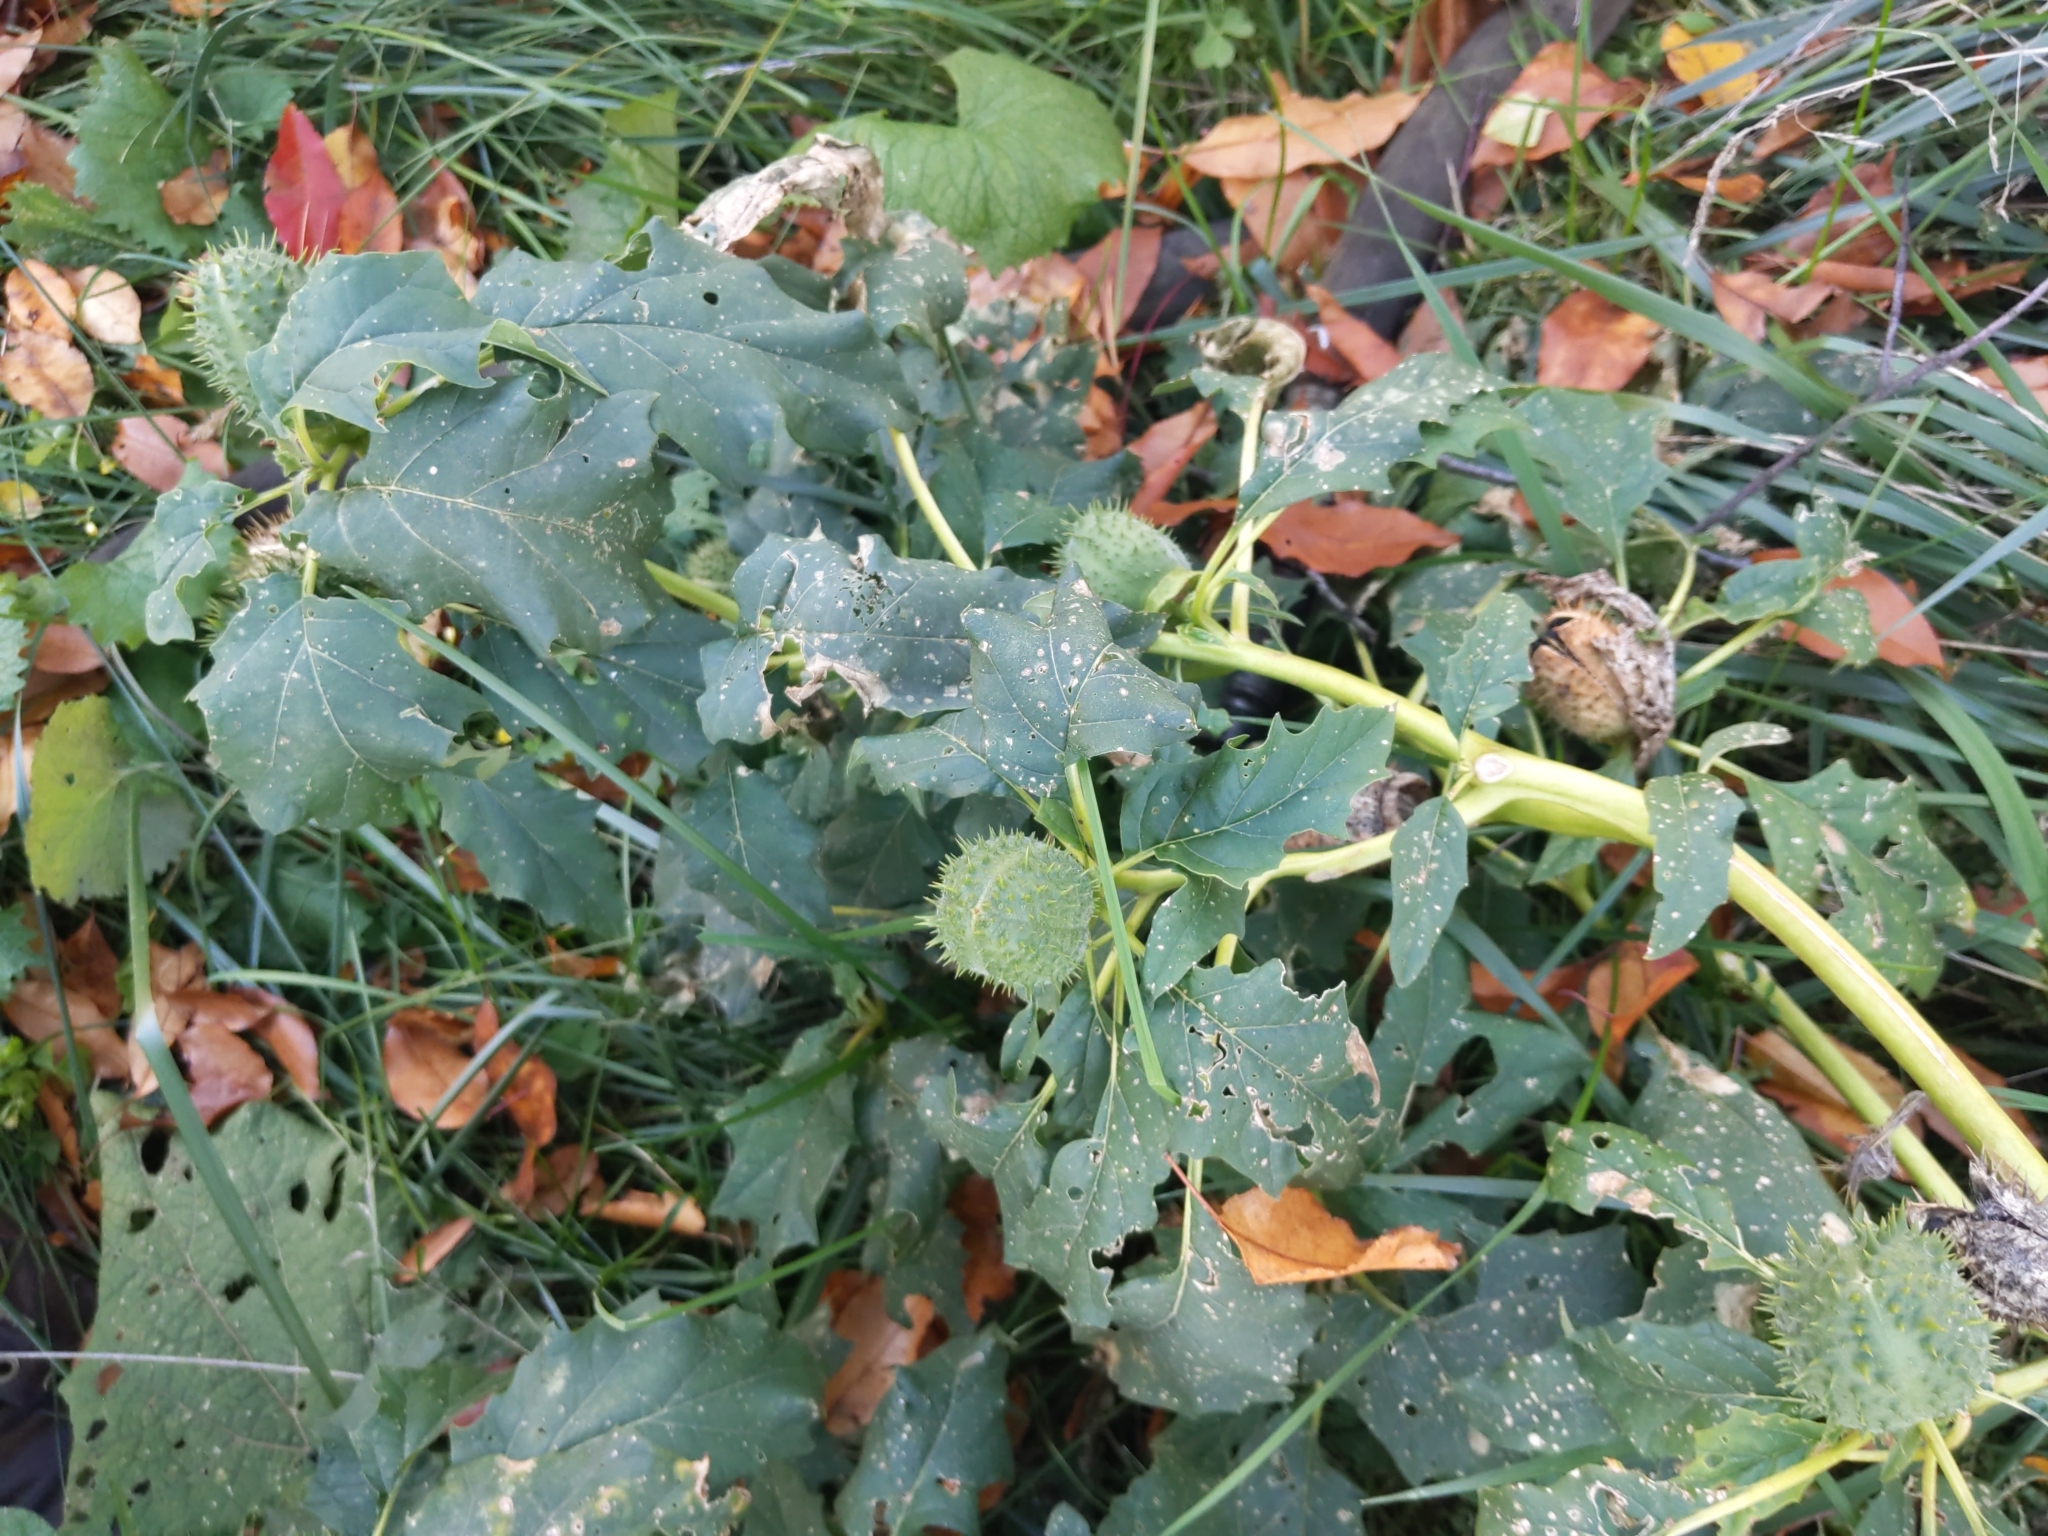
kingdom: Plantae
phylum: Tracheophyta
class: Magnoliopsida
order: Solanales
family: Solanaceae
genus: Datura
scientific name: Datura stramonium
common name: Thorn-apple
